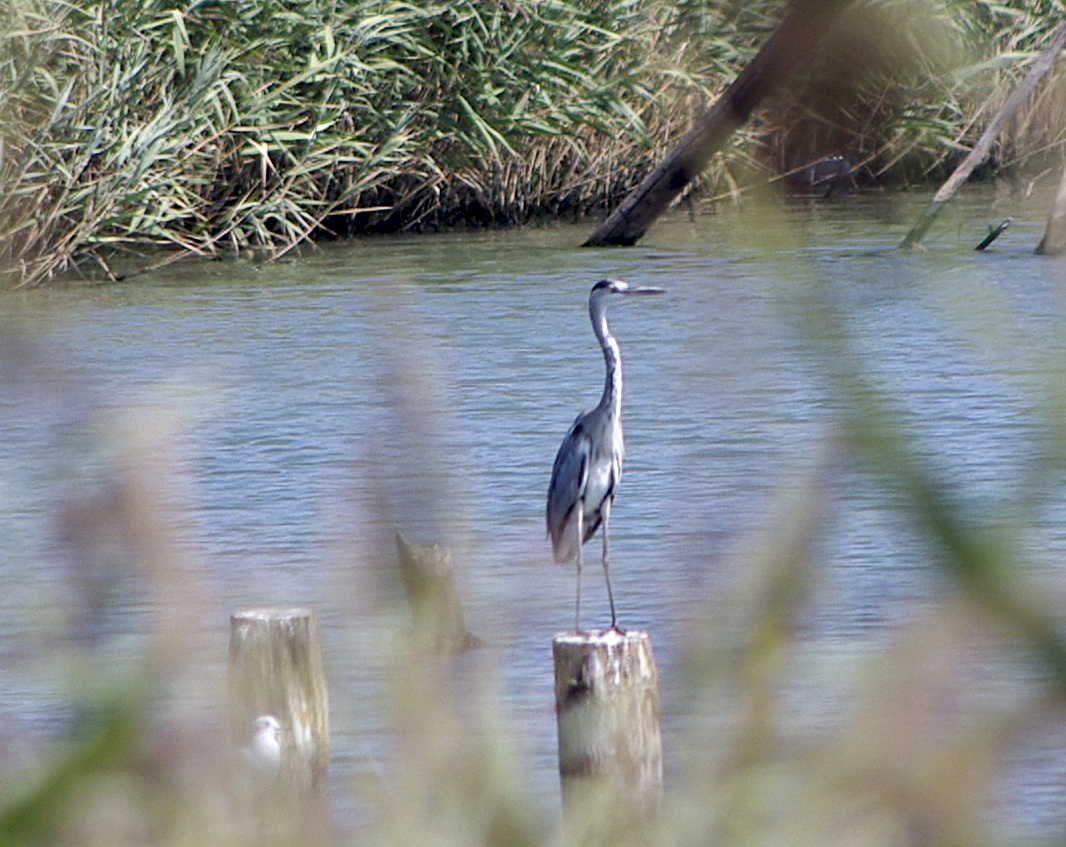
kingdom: Animalia
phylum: Chordata
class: Aves
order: Pelecaniformes
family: Ardeidae
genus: Ardea
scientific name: Ardea cinerea
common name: Grey heron
